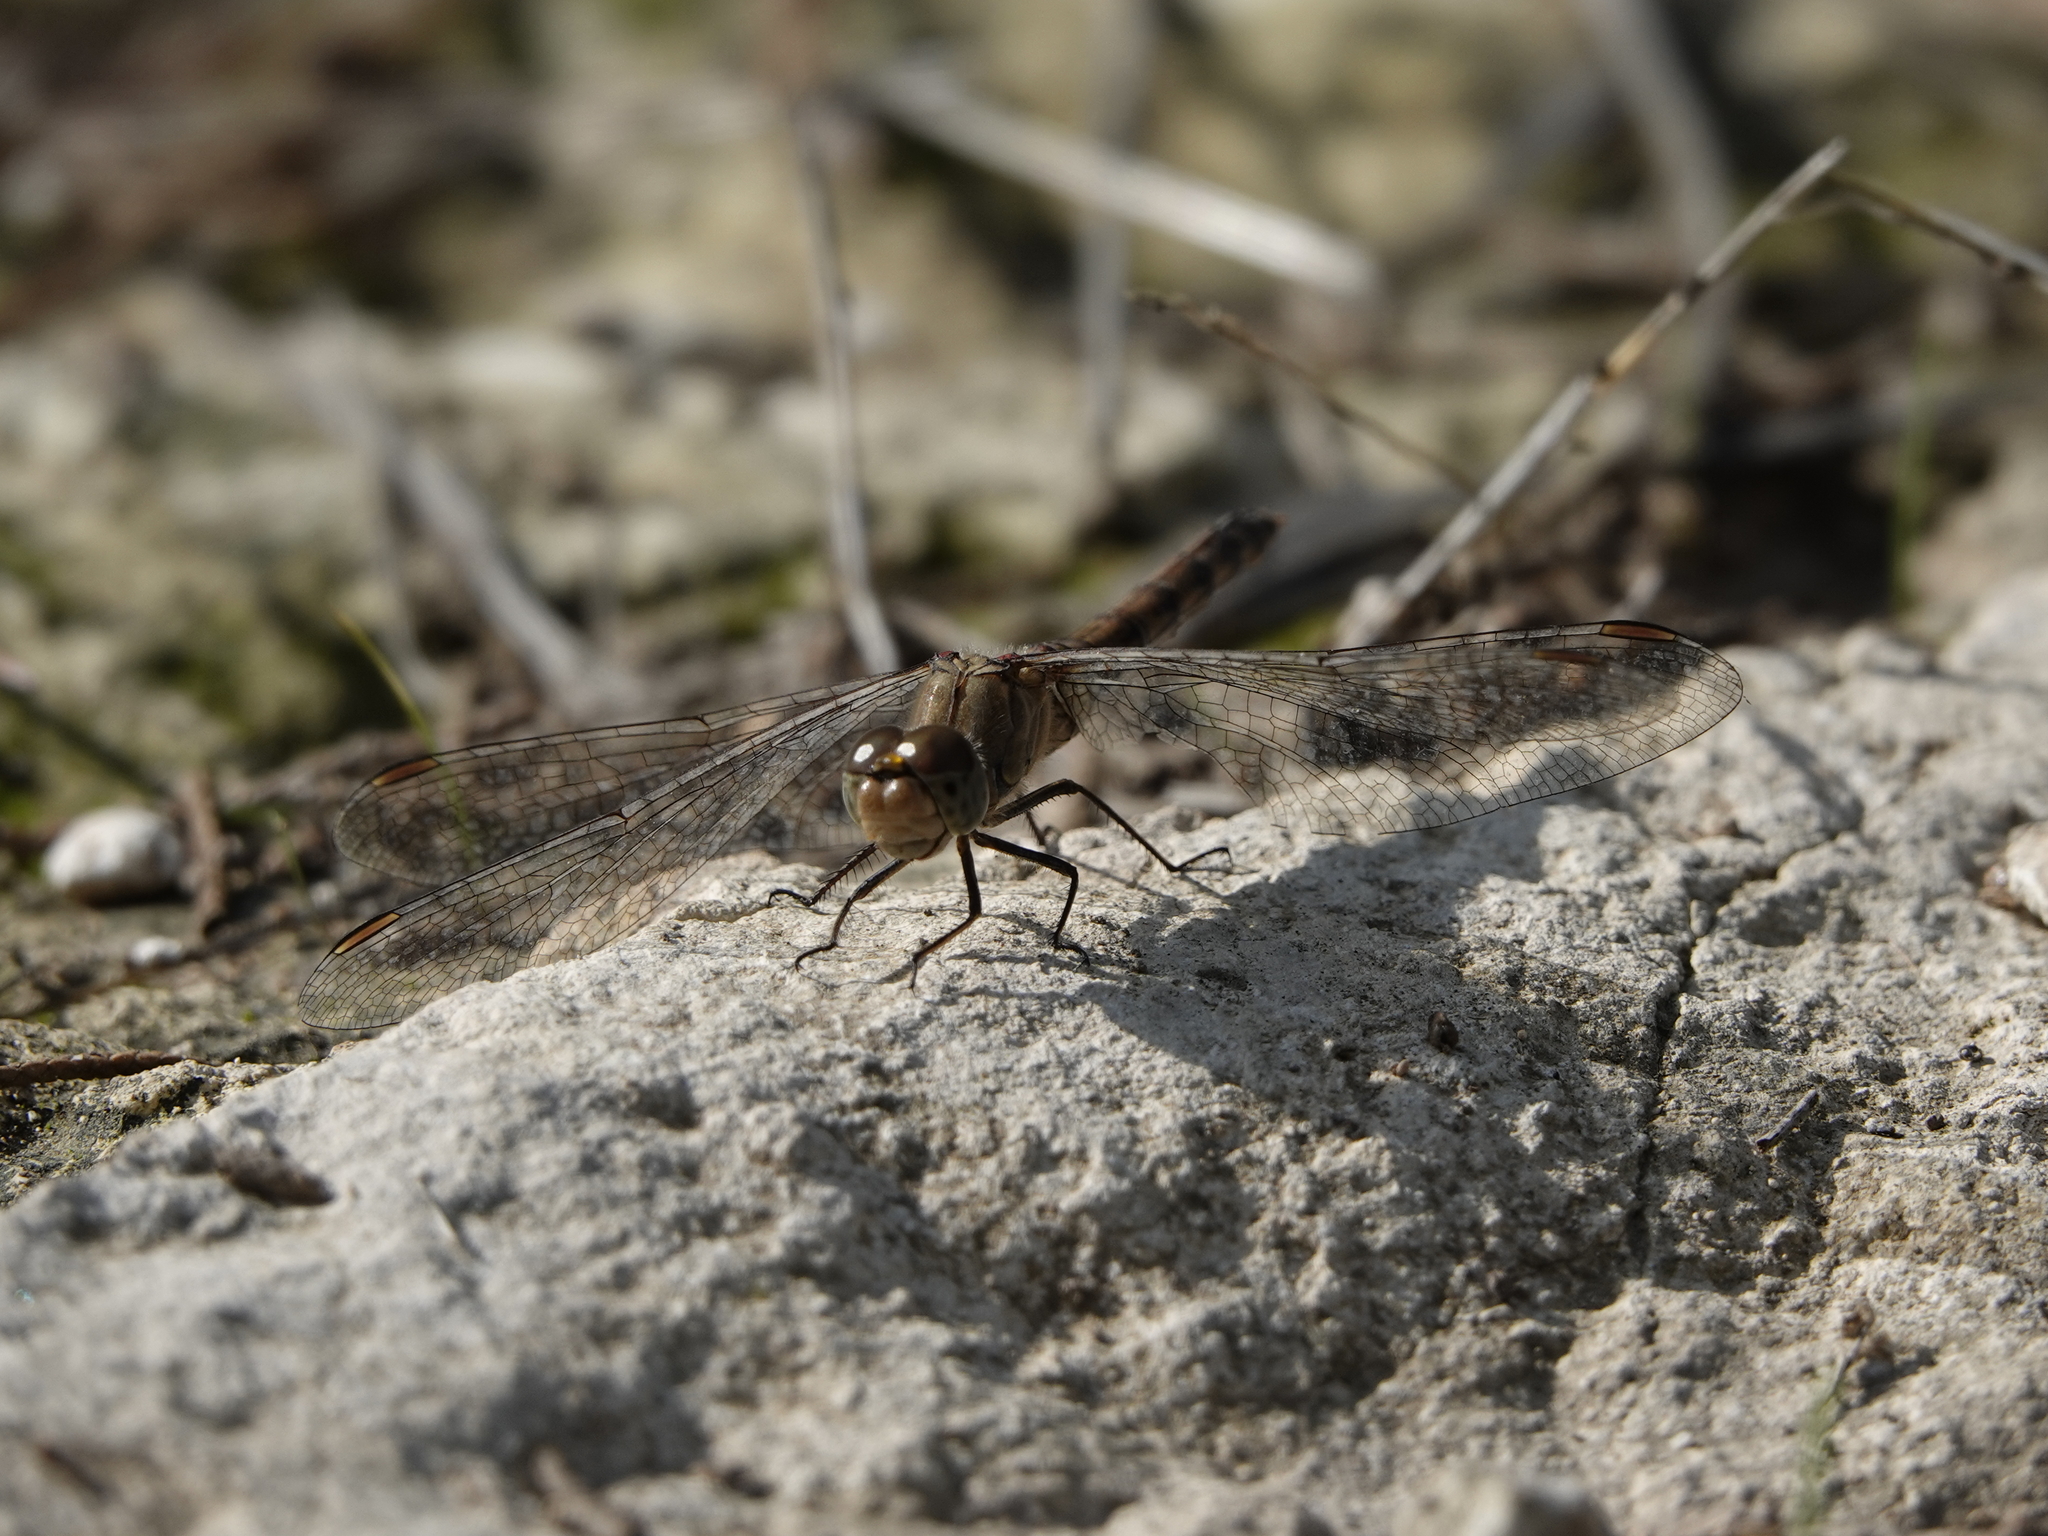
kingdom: Animalia
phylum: Arthropoda
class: Insecta
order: Odonata
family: Libellulidae
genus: Sympetrum
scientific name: Sympetrum striolatum
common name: Common darter
